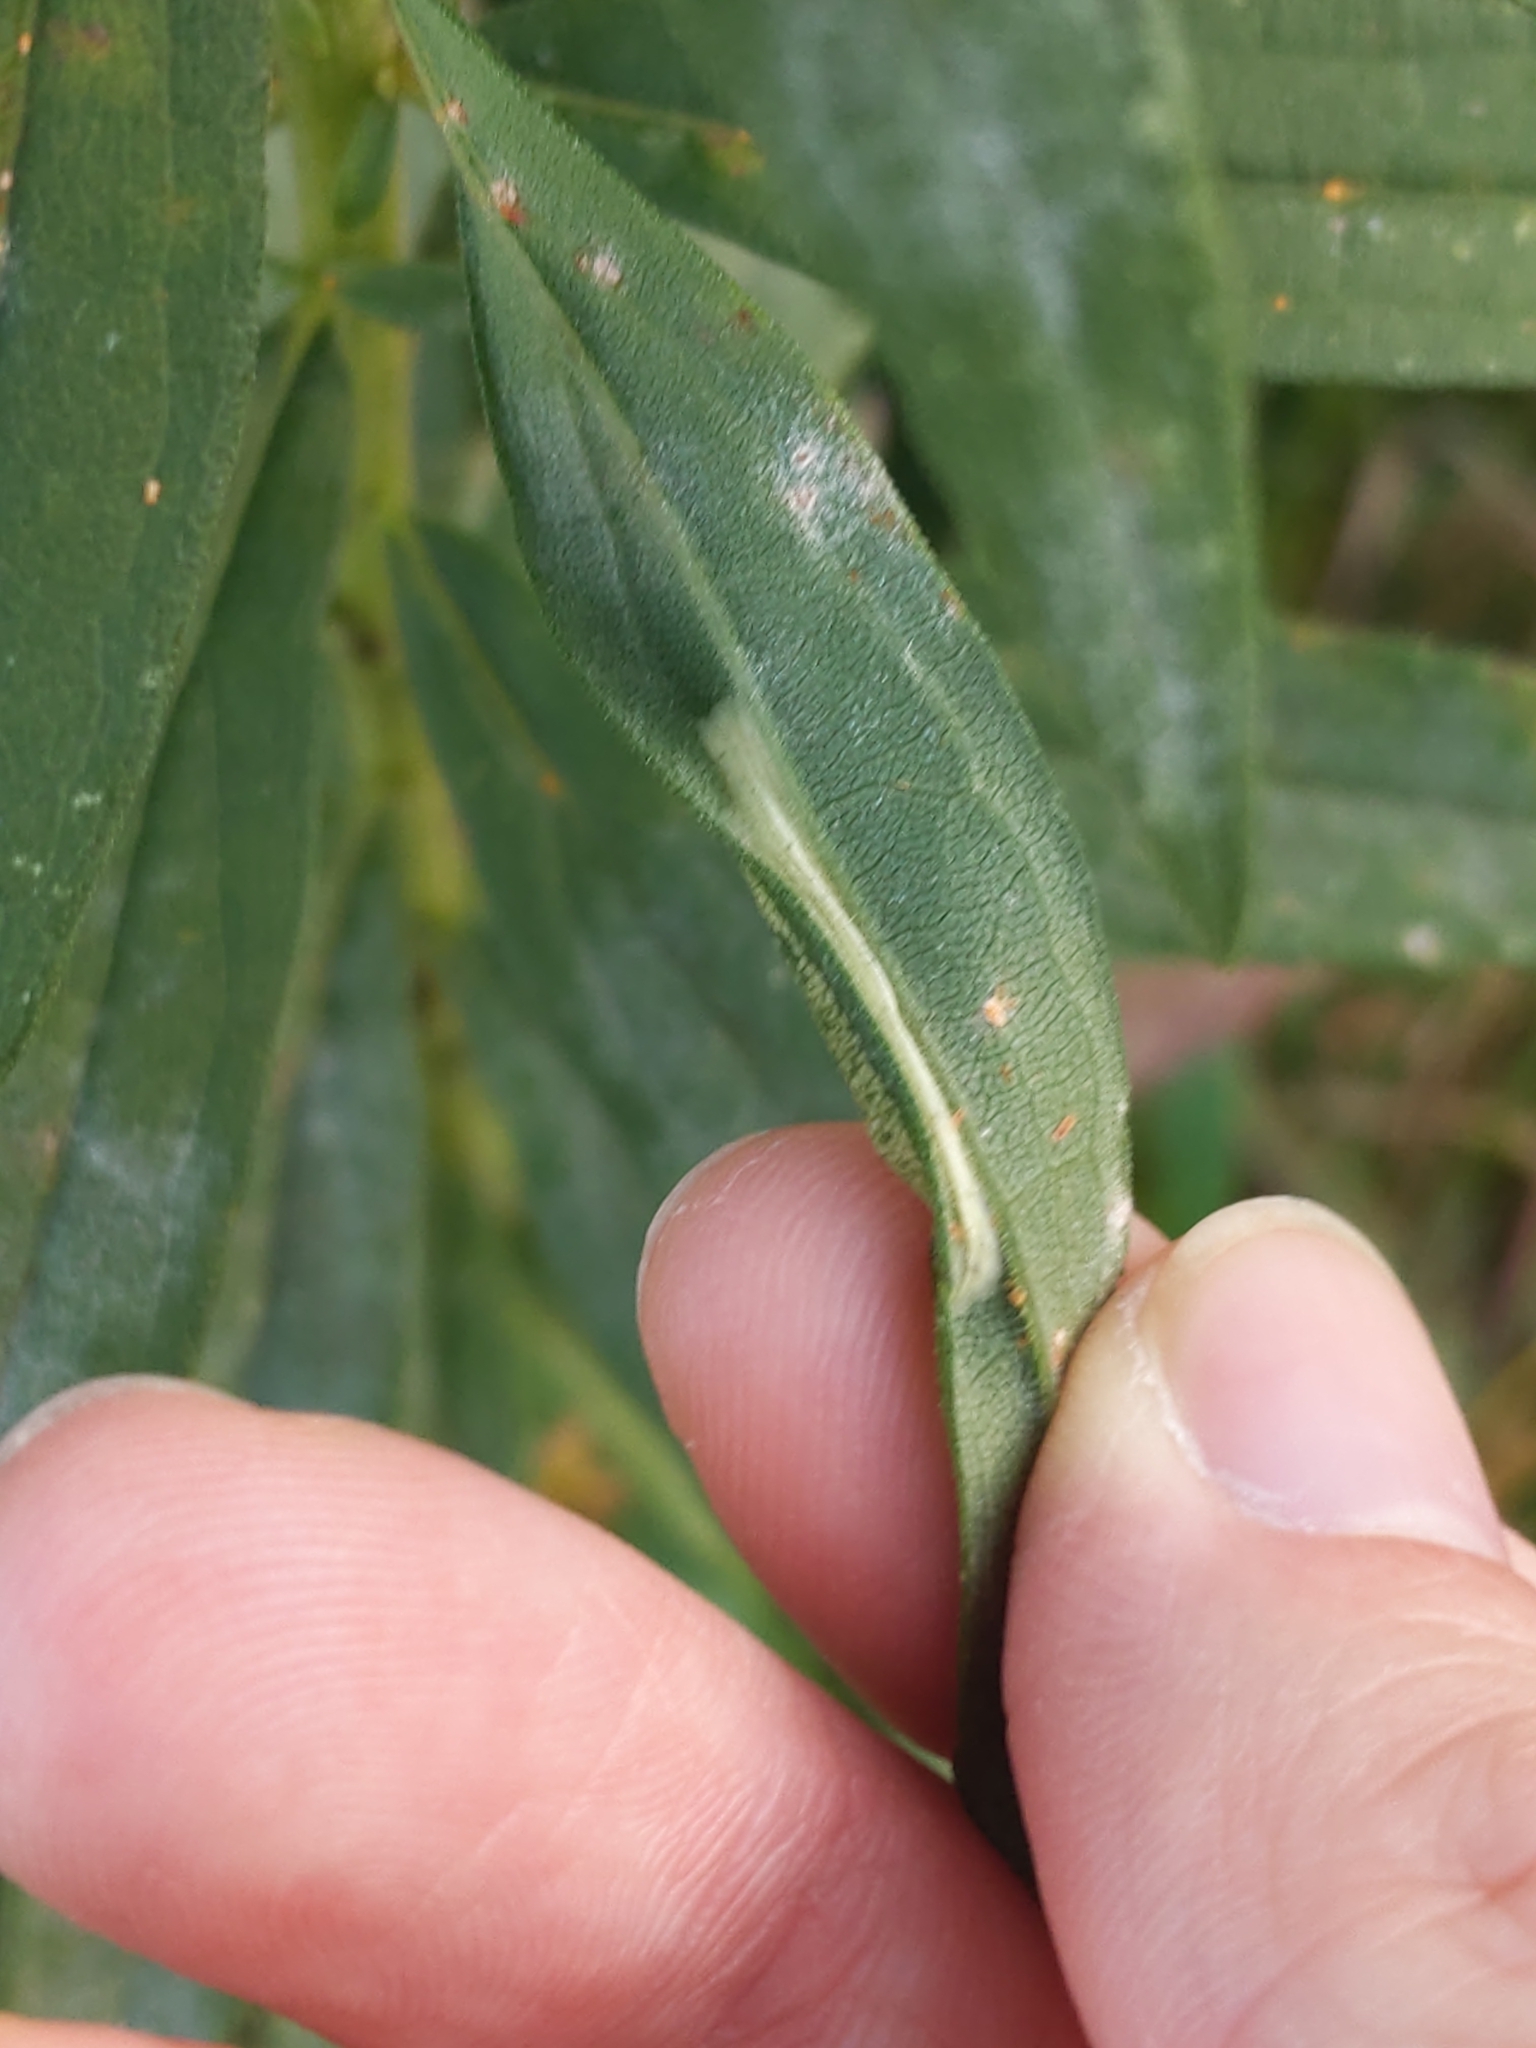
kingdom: Animalia
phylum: Arthropoda
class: Insecta
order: Lepidoptera
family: Gracillariidae
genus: Cremastobombycia
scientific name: Cremastobombycia solidaginis
